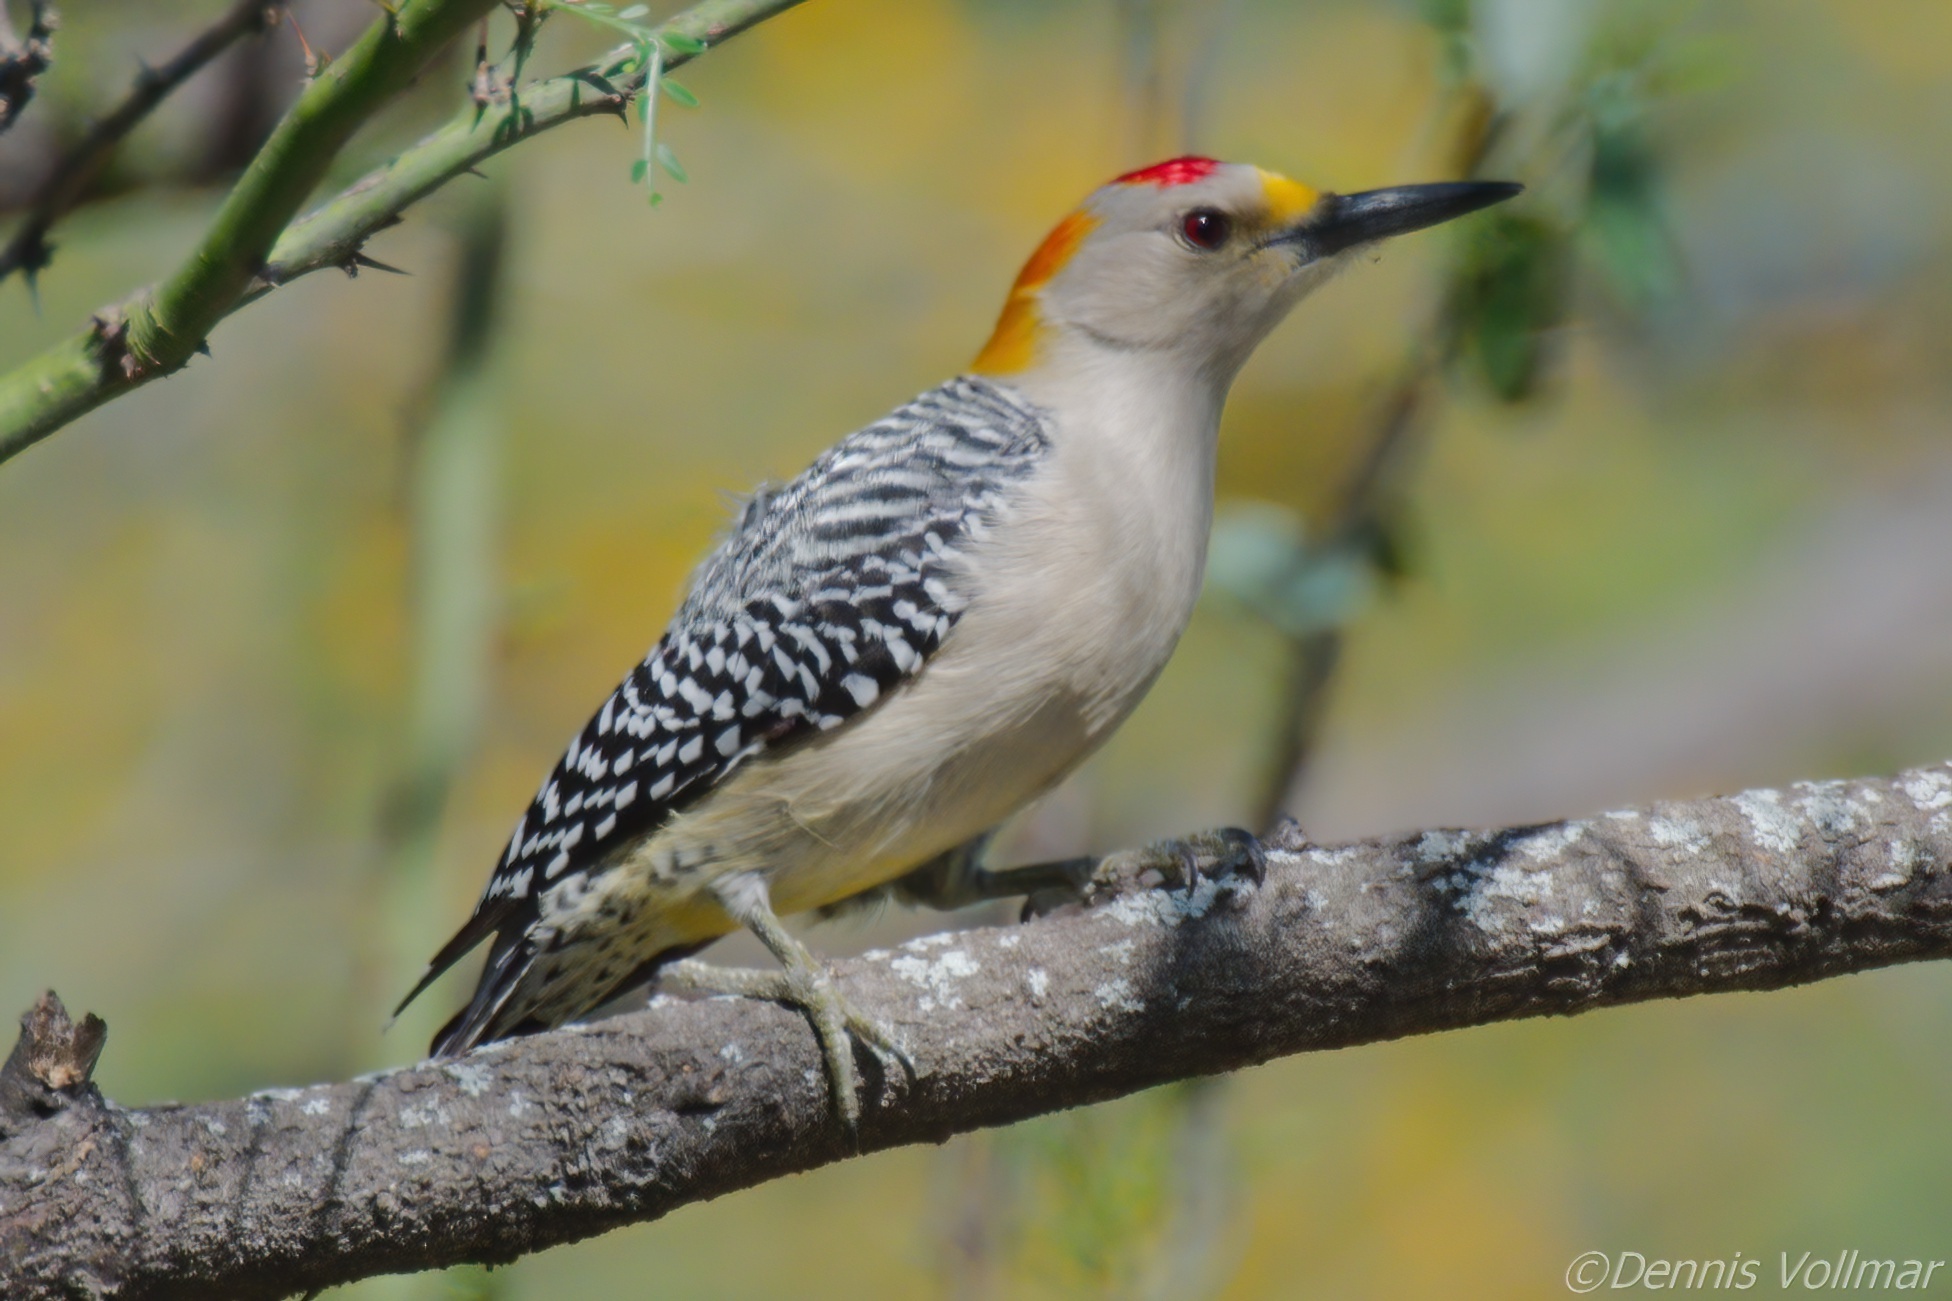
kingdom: Animalia
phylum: Chordata
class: Aves
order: Piciformes
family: Picidae
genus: Melanerpes
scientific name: Melanerpes aurifrons
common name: Golden-fronted woodpecker
